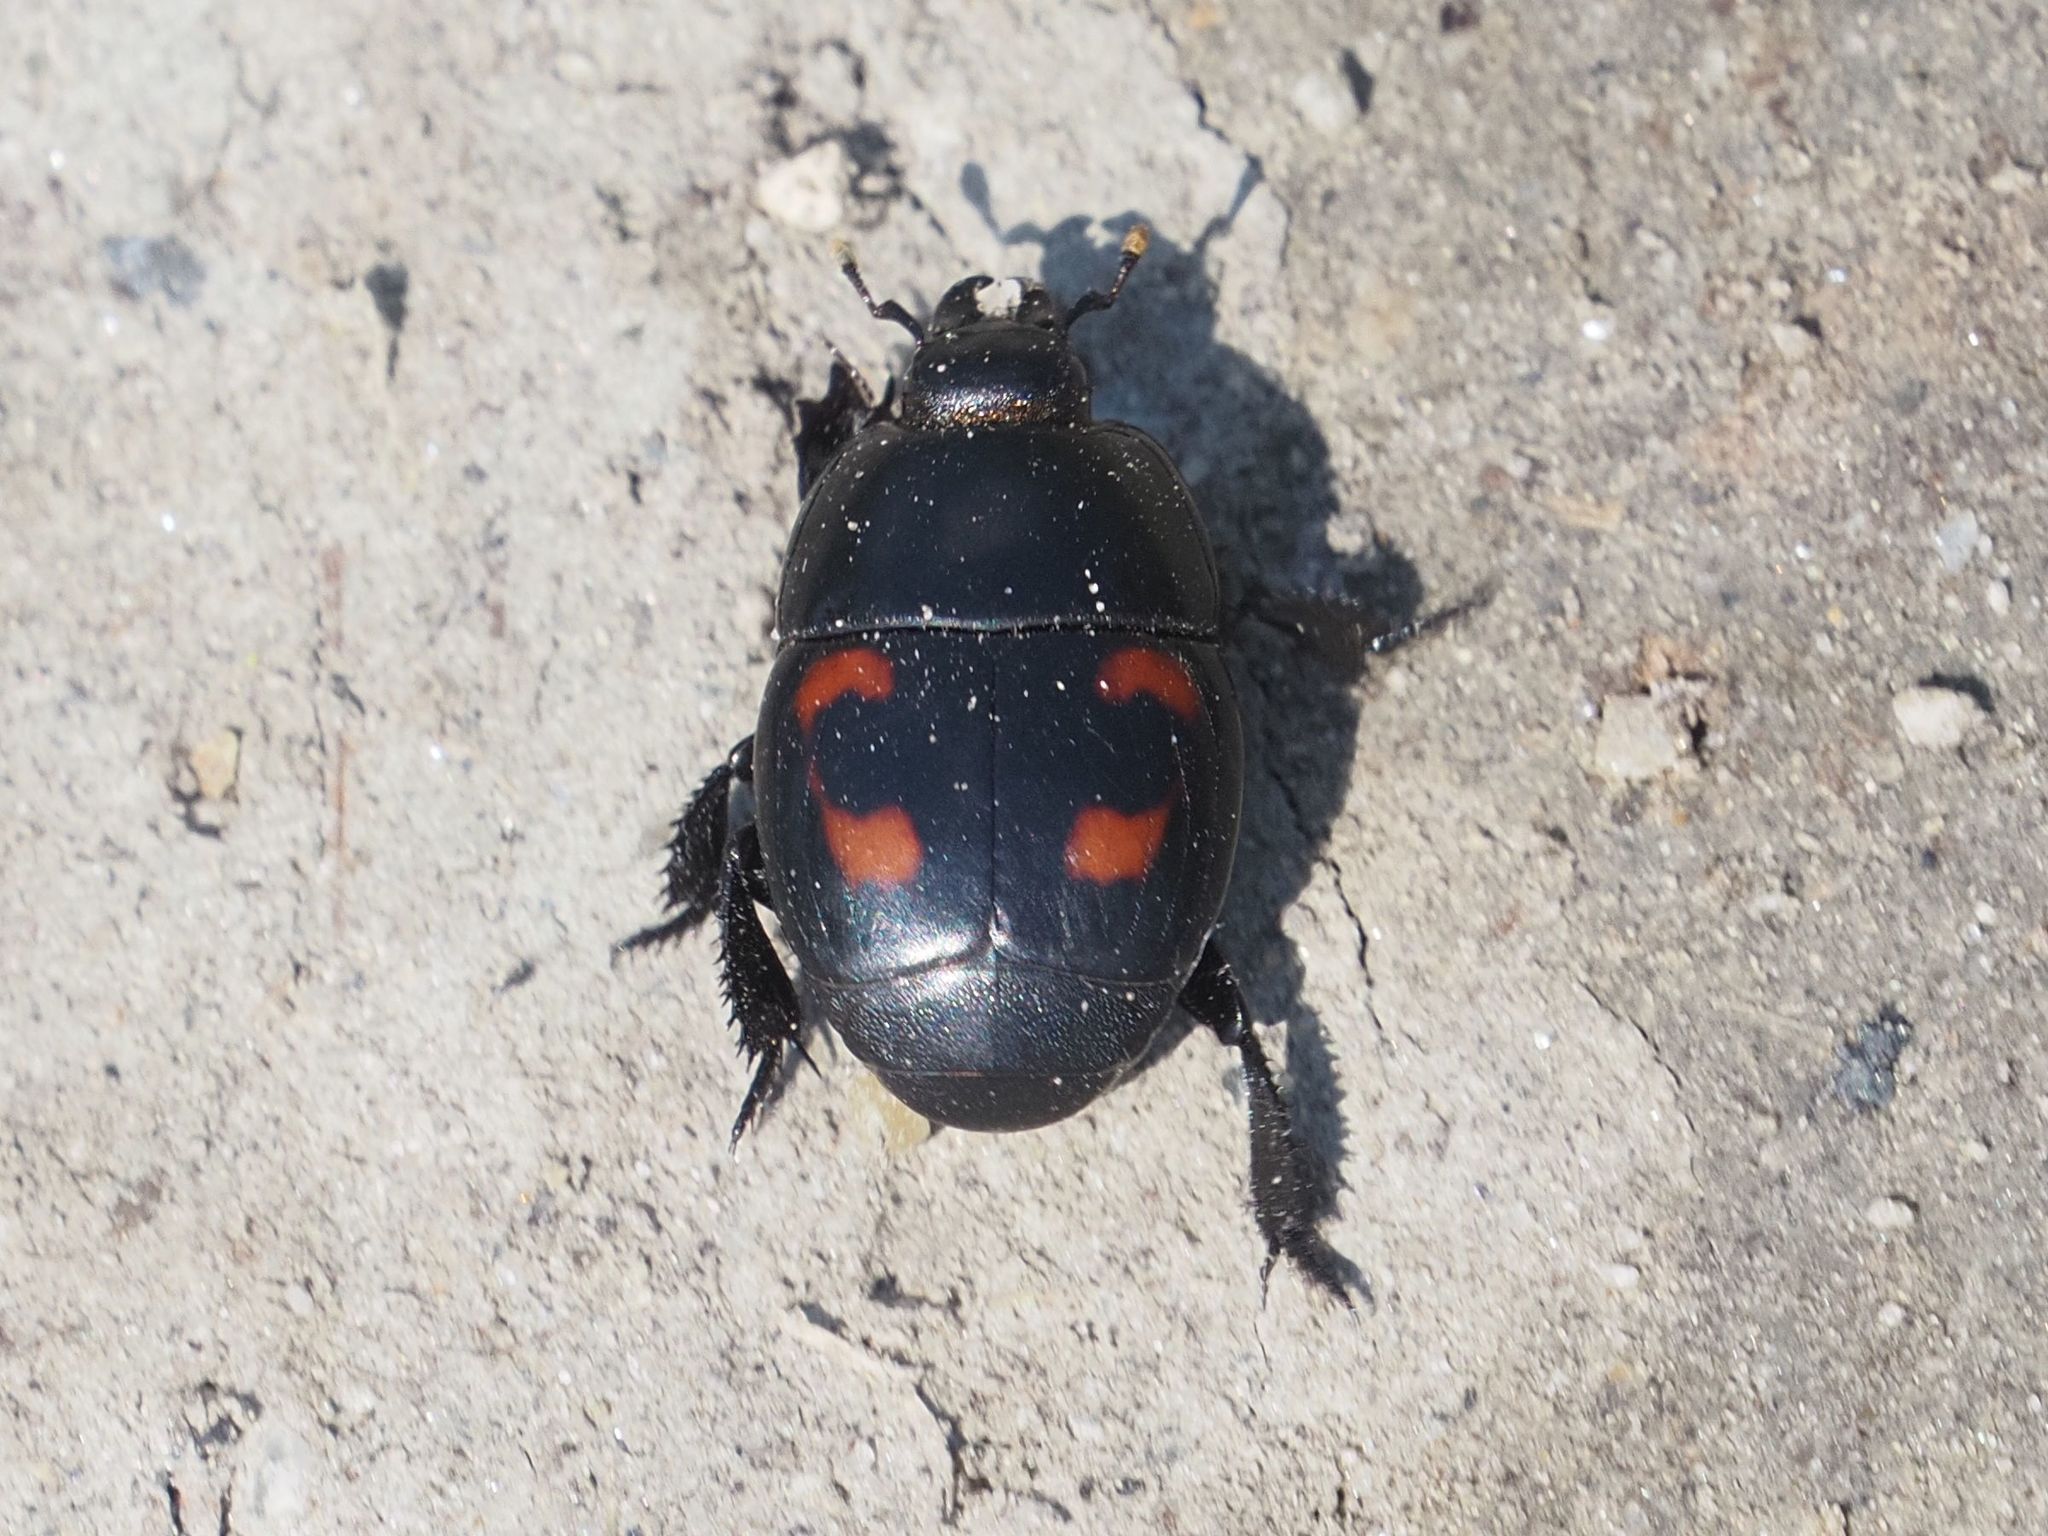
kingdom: Animalia
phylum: Arthropoda
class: Insecta
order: Coleoptera
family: Histeridae
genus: Hister
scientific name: Hister quadrimaculatus
